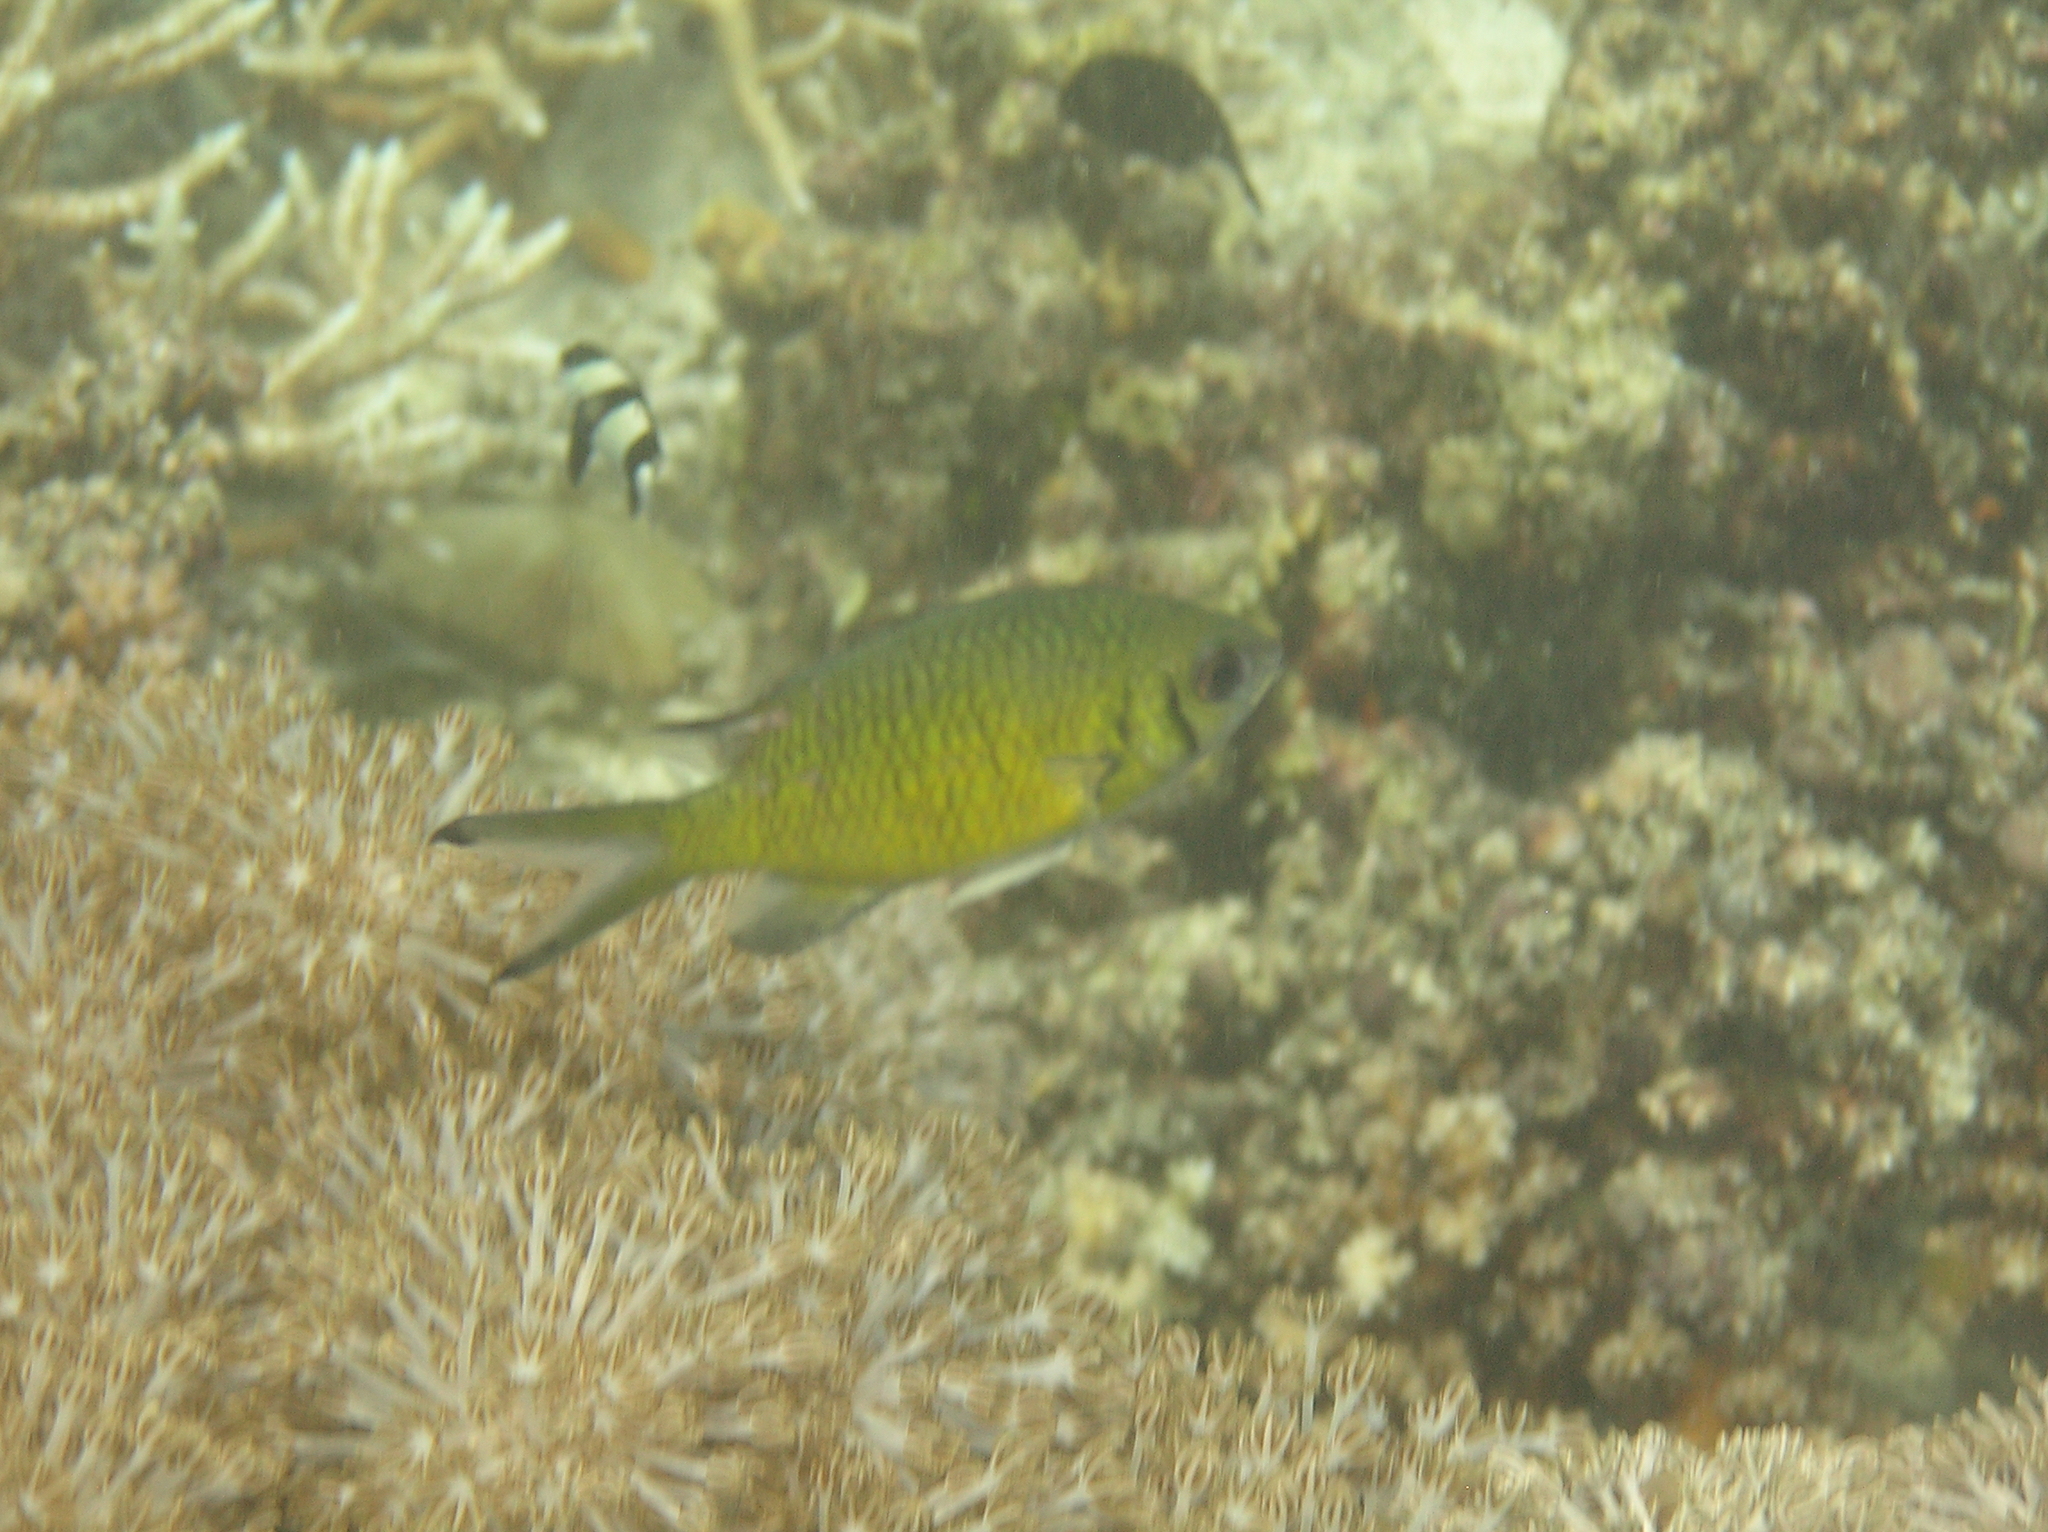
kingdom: Animalia
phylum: Chordata
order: Perciformes
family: Pomacentridae
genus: Chromis
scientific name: Chromis weberi
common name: Weber's chromis
